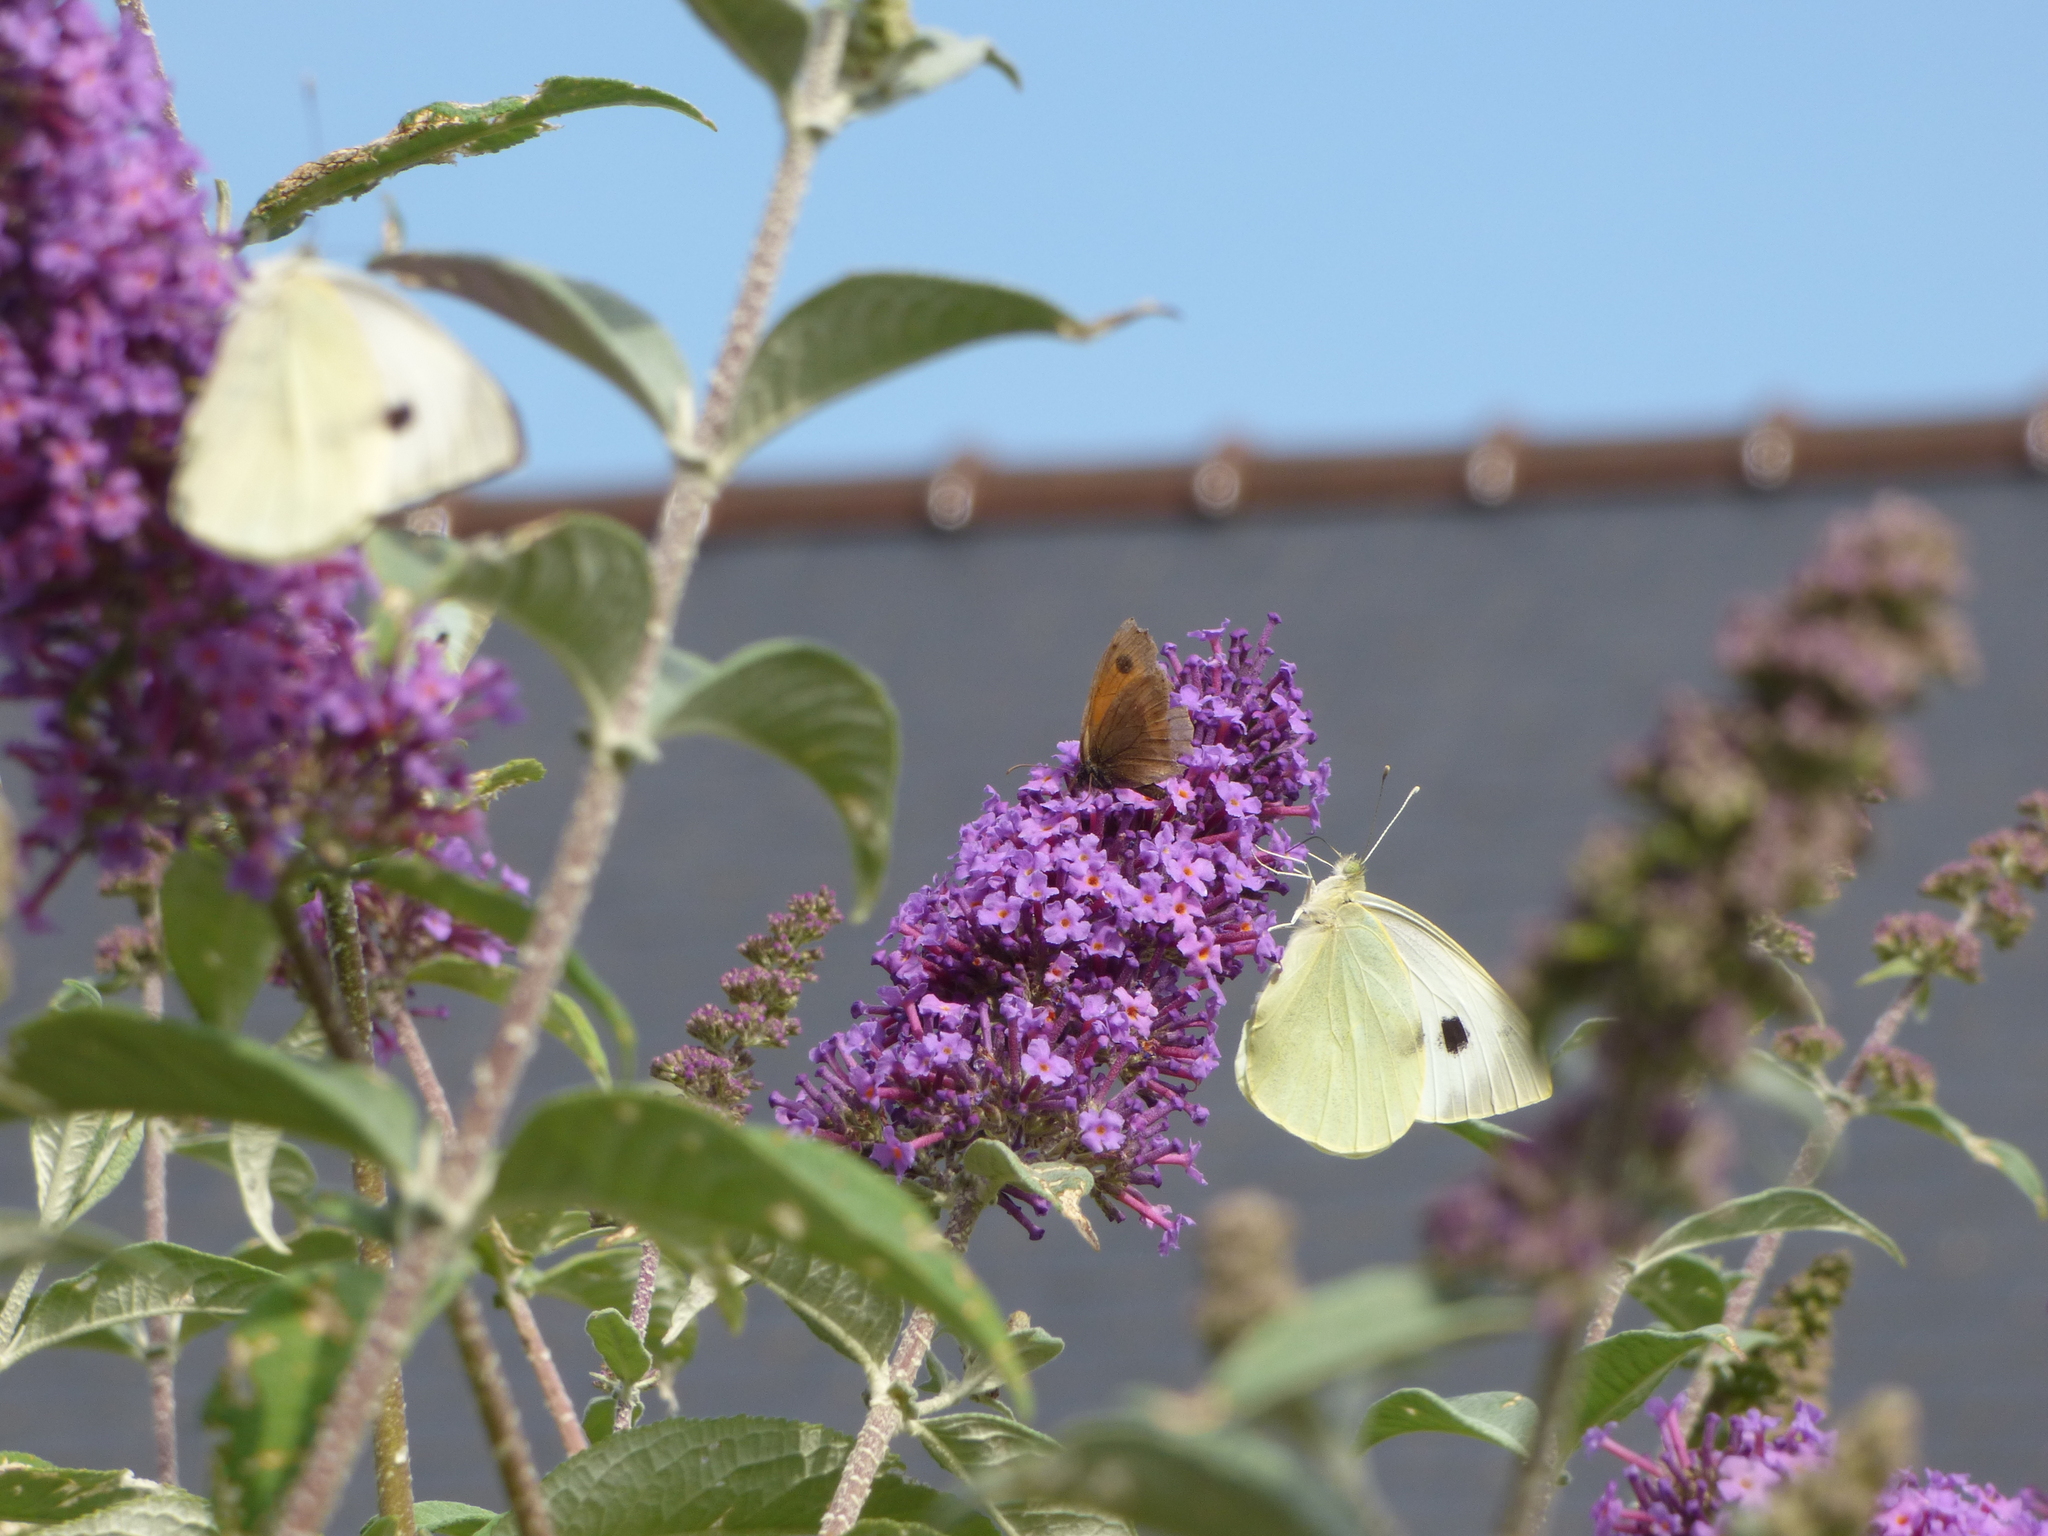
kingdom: Animalia
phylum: Arthropoda
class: Insecta
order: Lepidoptera
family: Pieridae
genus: Pieris
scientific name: Pieris brassicae
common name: Large white
